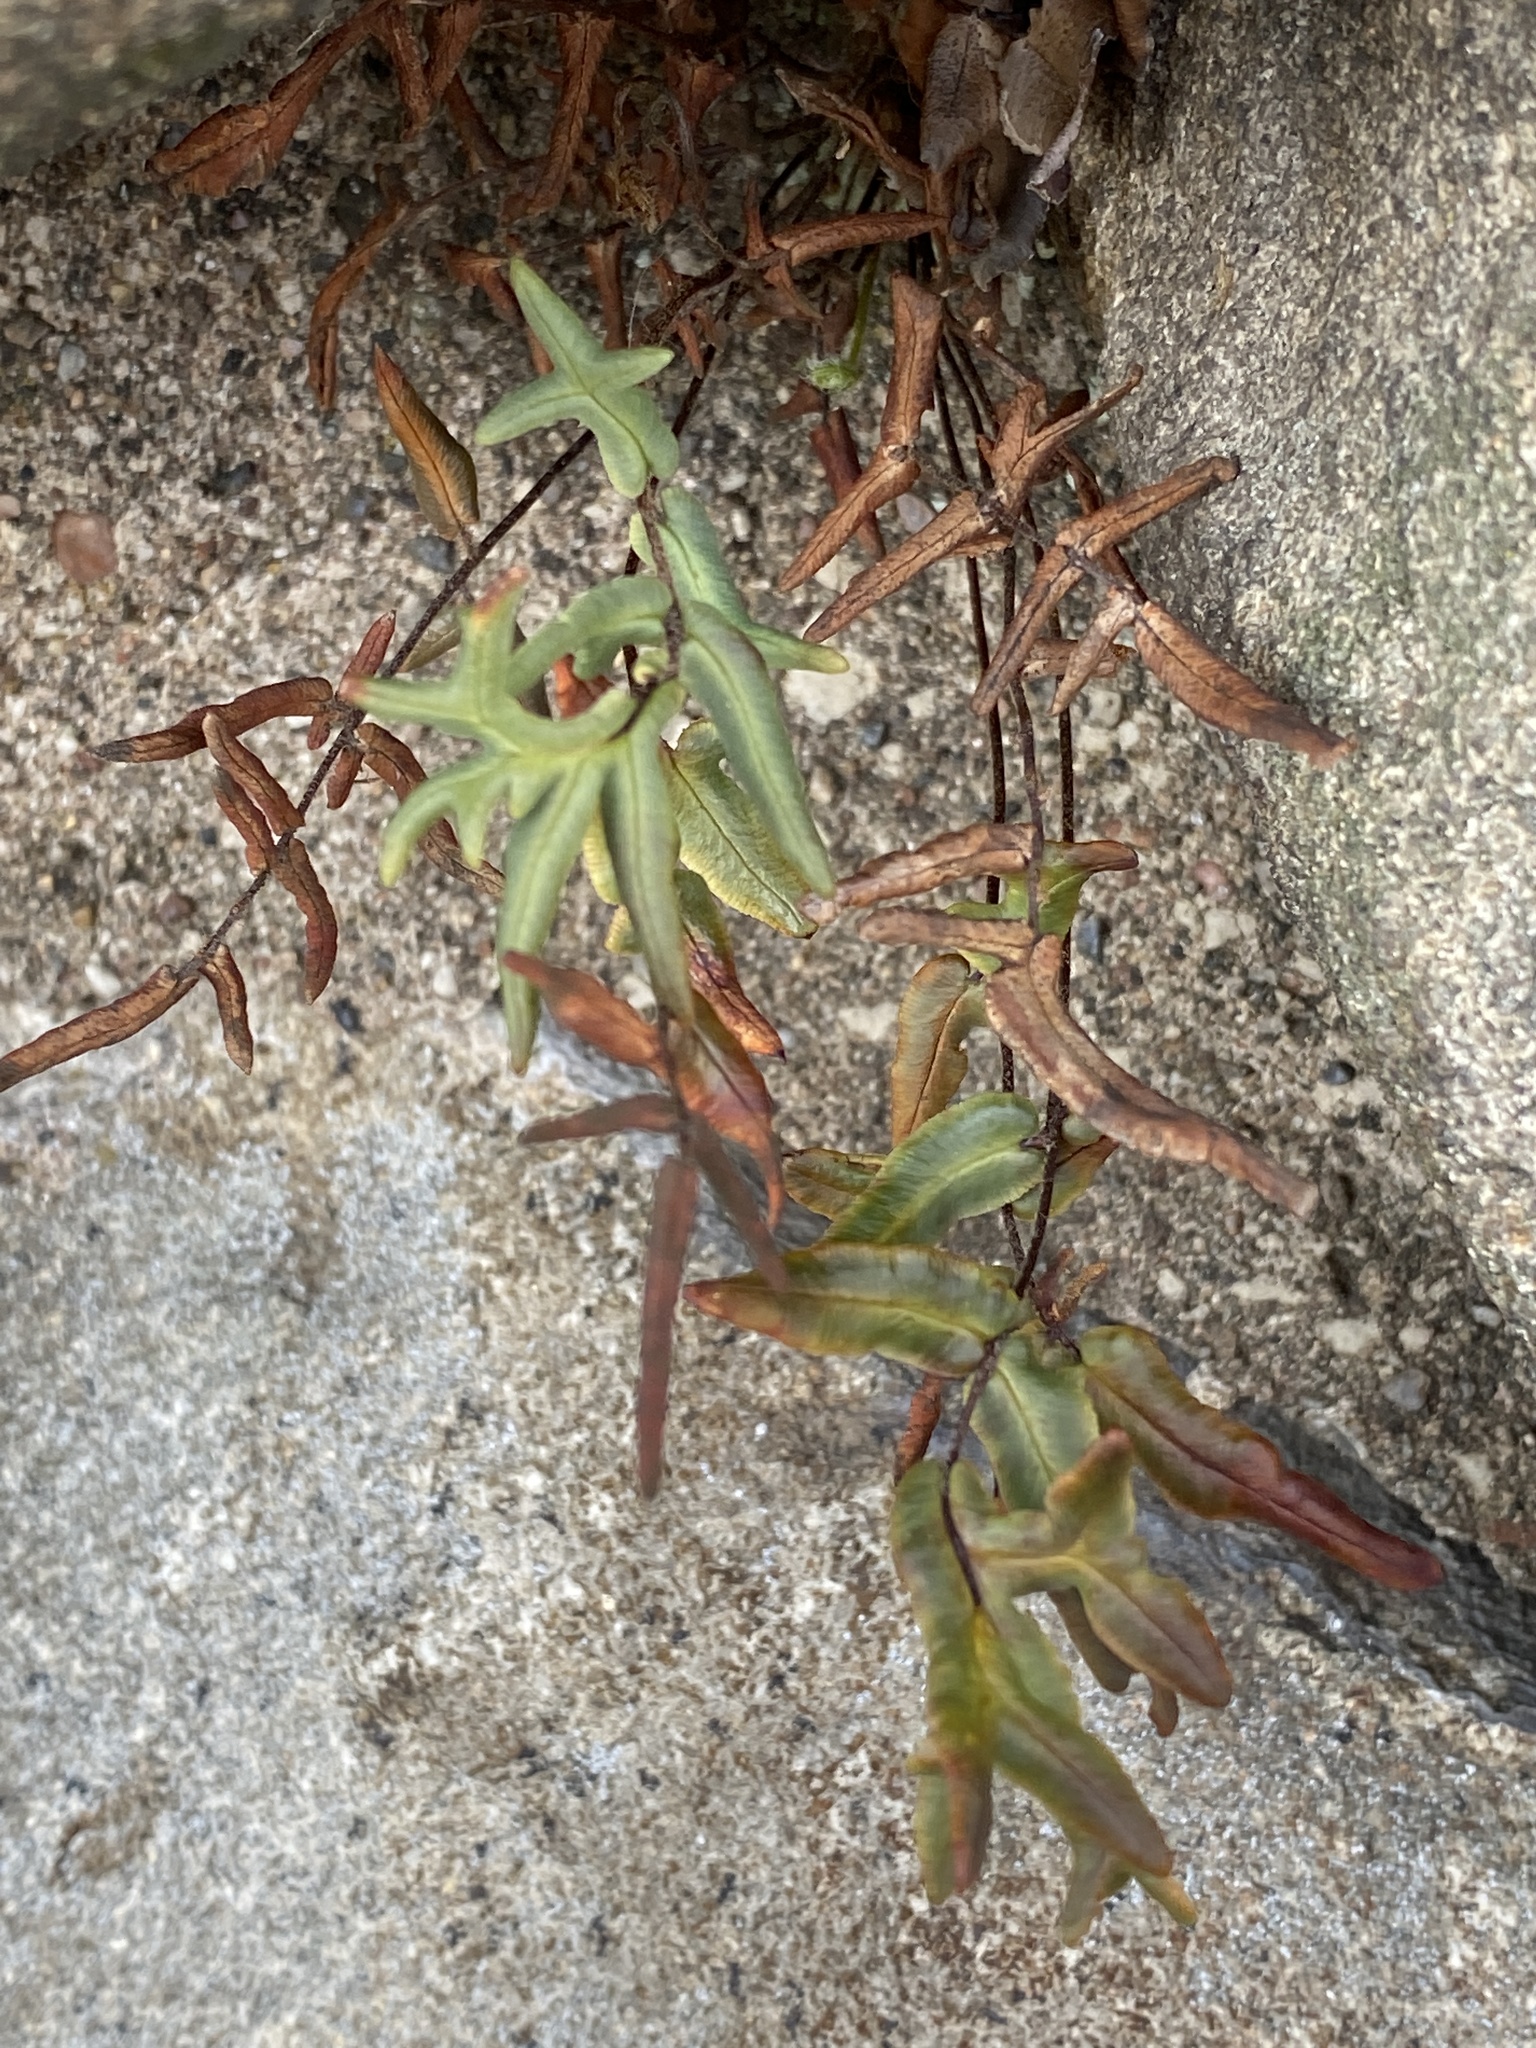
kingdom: Plantae
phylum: Tracheophyta
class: Polypodiopsida
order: Polypodiales
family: Pteridaceae
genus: Pellaea
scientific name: Pellaea atropurpurea
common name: Hairy cliffbrake
